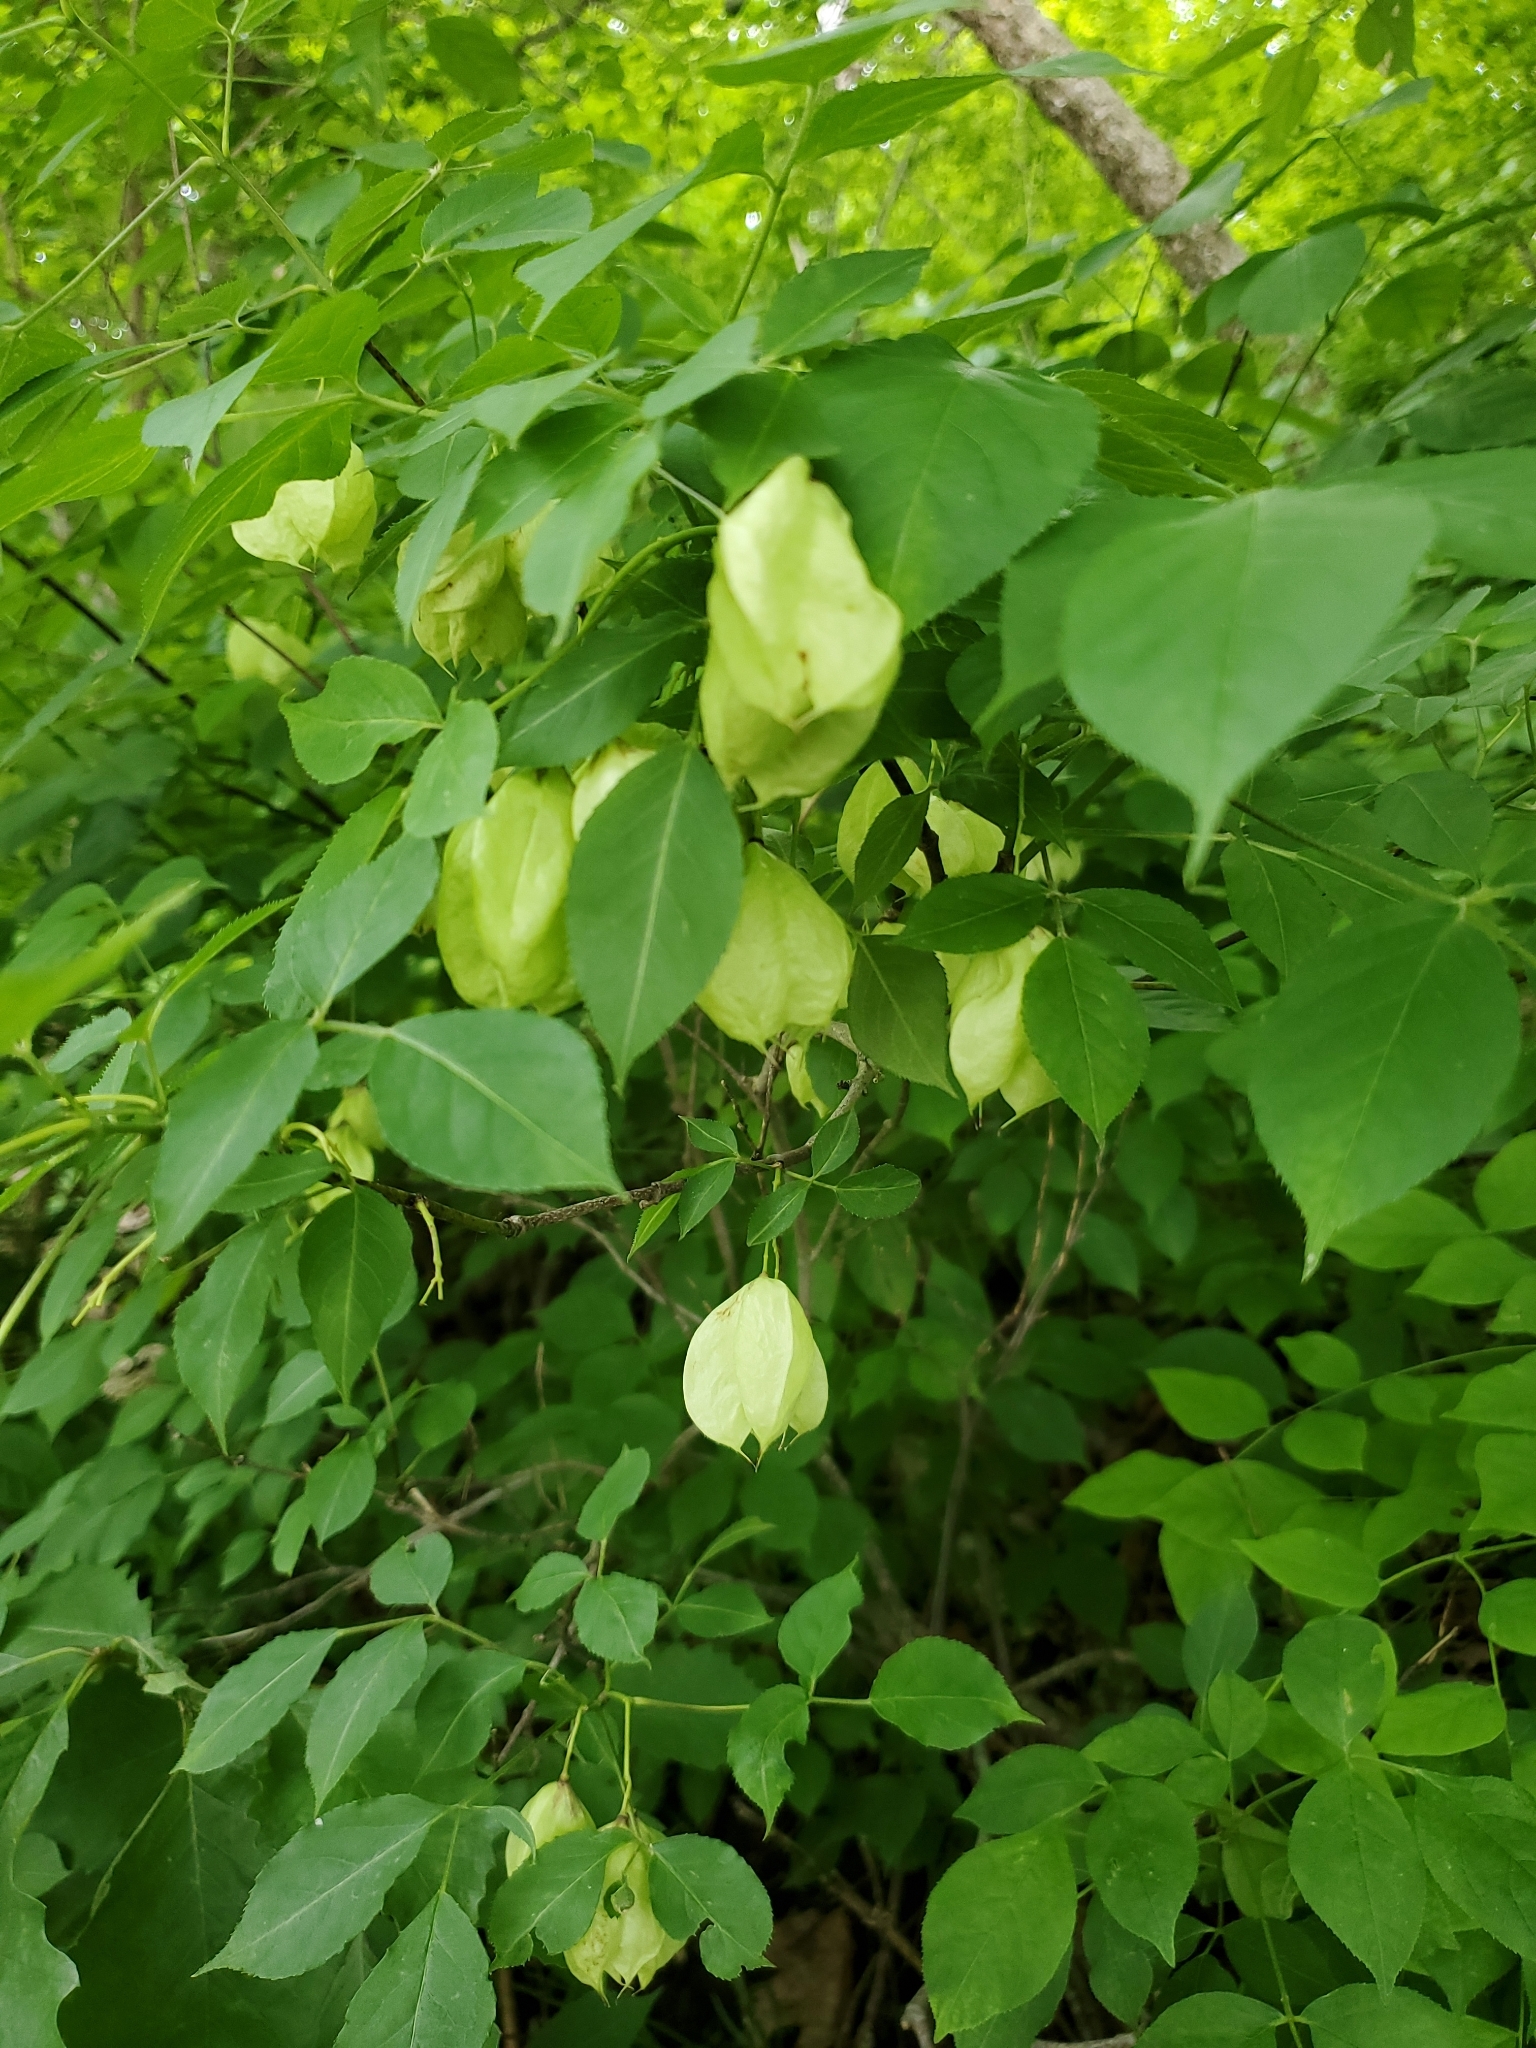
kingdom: Plantae
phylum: Tracheophyta
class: Magnoliopsida
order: Crossosomatales
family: Staphyleaceae
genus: Staphylea
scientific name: Staphylea trifolia
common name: American bladdernut
